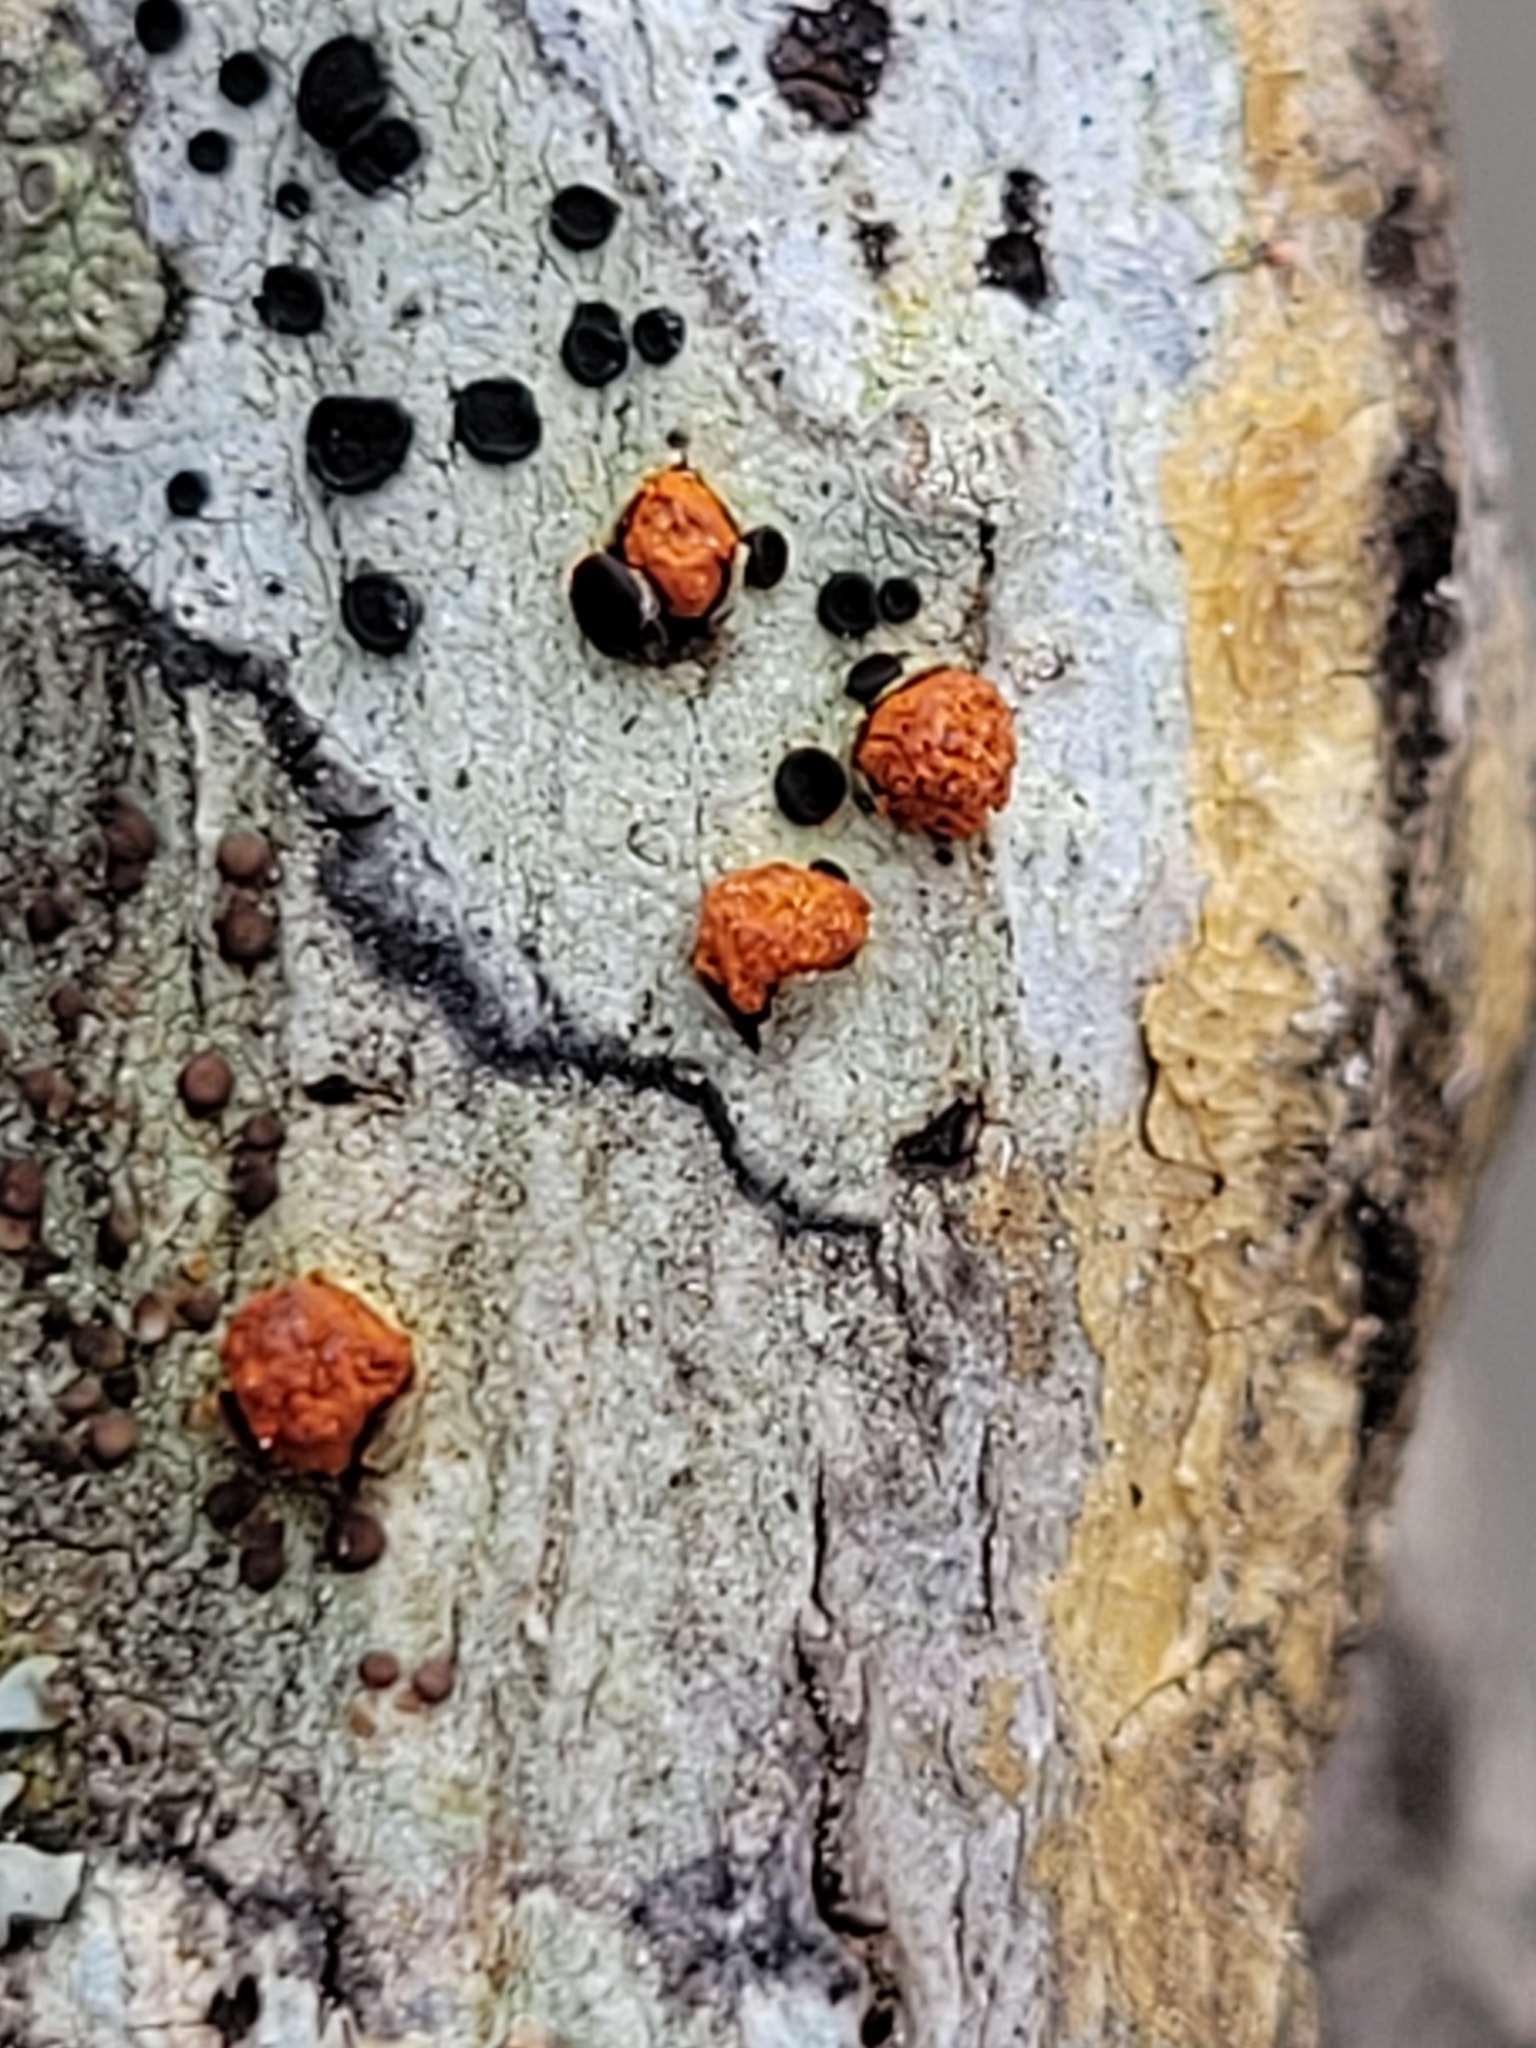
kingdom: Fungi
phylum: Ascomycota
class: Sordariomycetes
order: Diaporthales
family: Cryphonectriaceae
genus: Amphilogia
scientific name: Amphilogia gyrosa
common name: Orange hobnail canker
